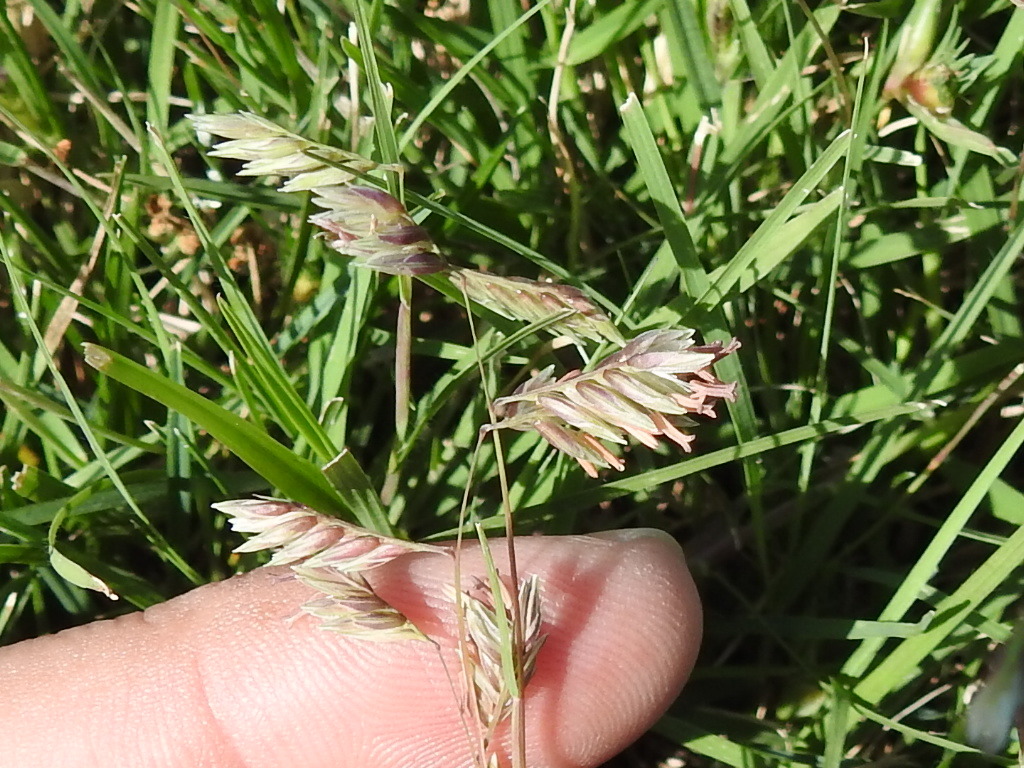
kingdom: Plantae
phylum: Tracheophyta
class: Liliopsida
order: Poales
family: Poaceae
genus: Bouteloua
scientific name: Bouteloua dactyloides
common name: Buffalo grass
